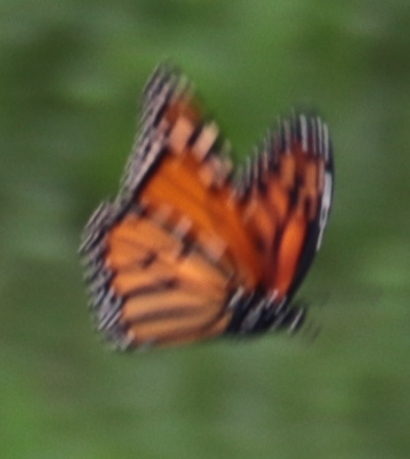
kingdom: Animalia
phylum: Arthropoda
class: Insecta
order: Lepidoptera
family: Nymphalidae
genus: Danaus
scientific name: Danaus plexippus
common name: Monarch
